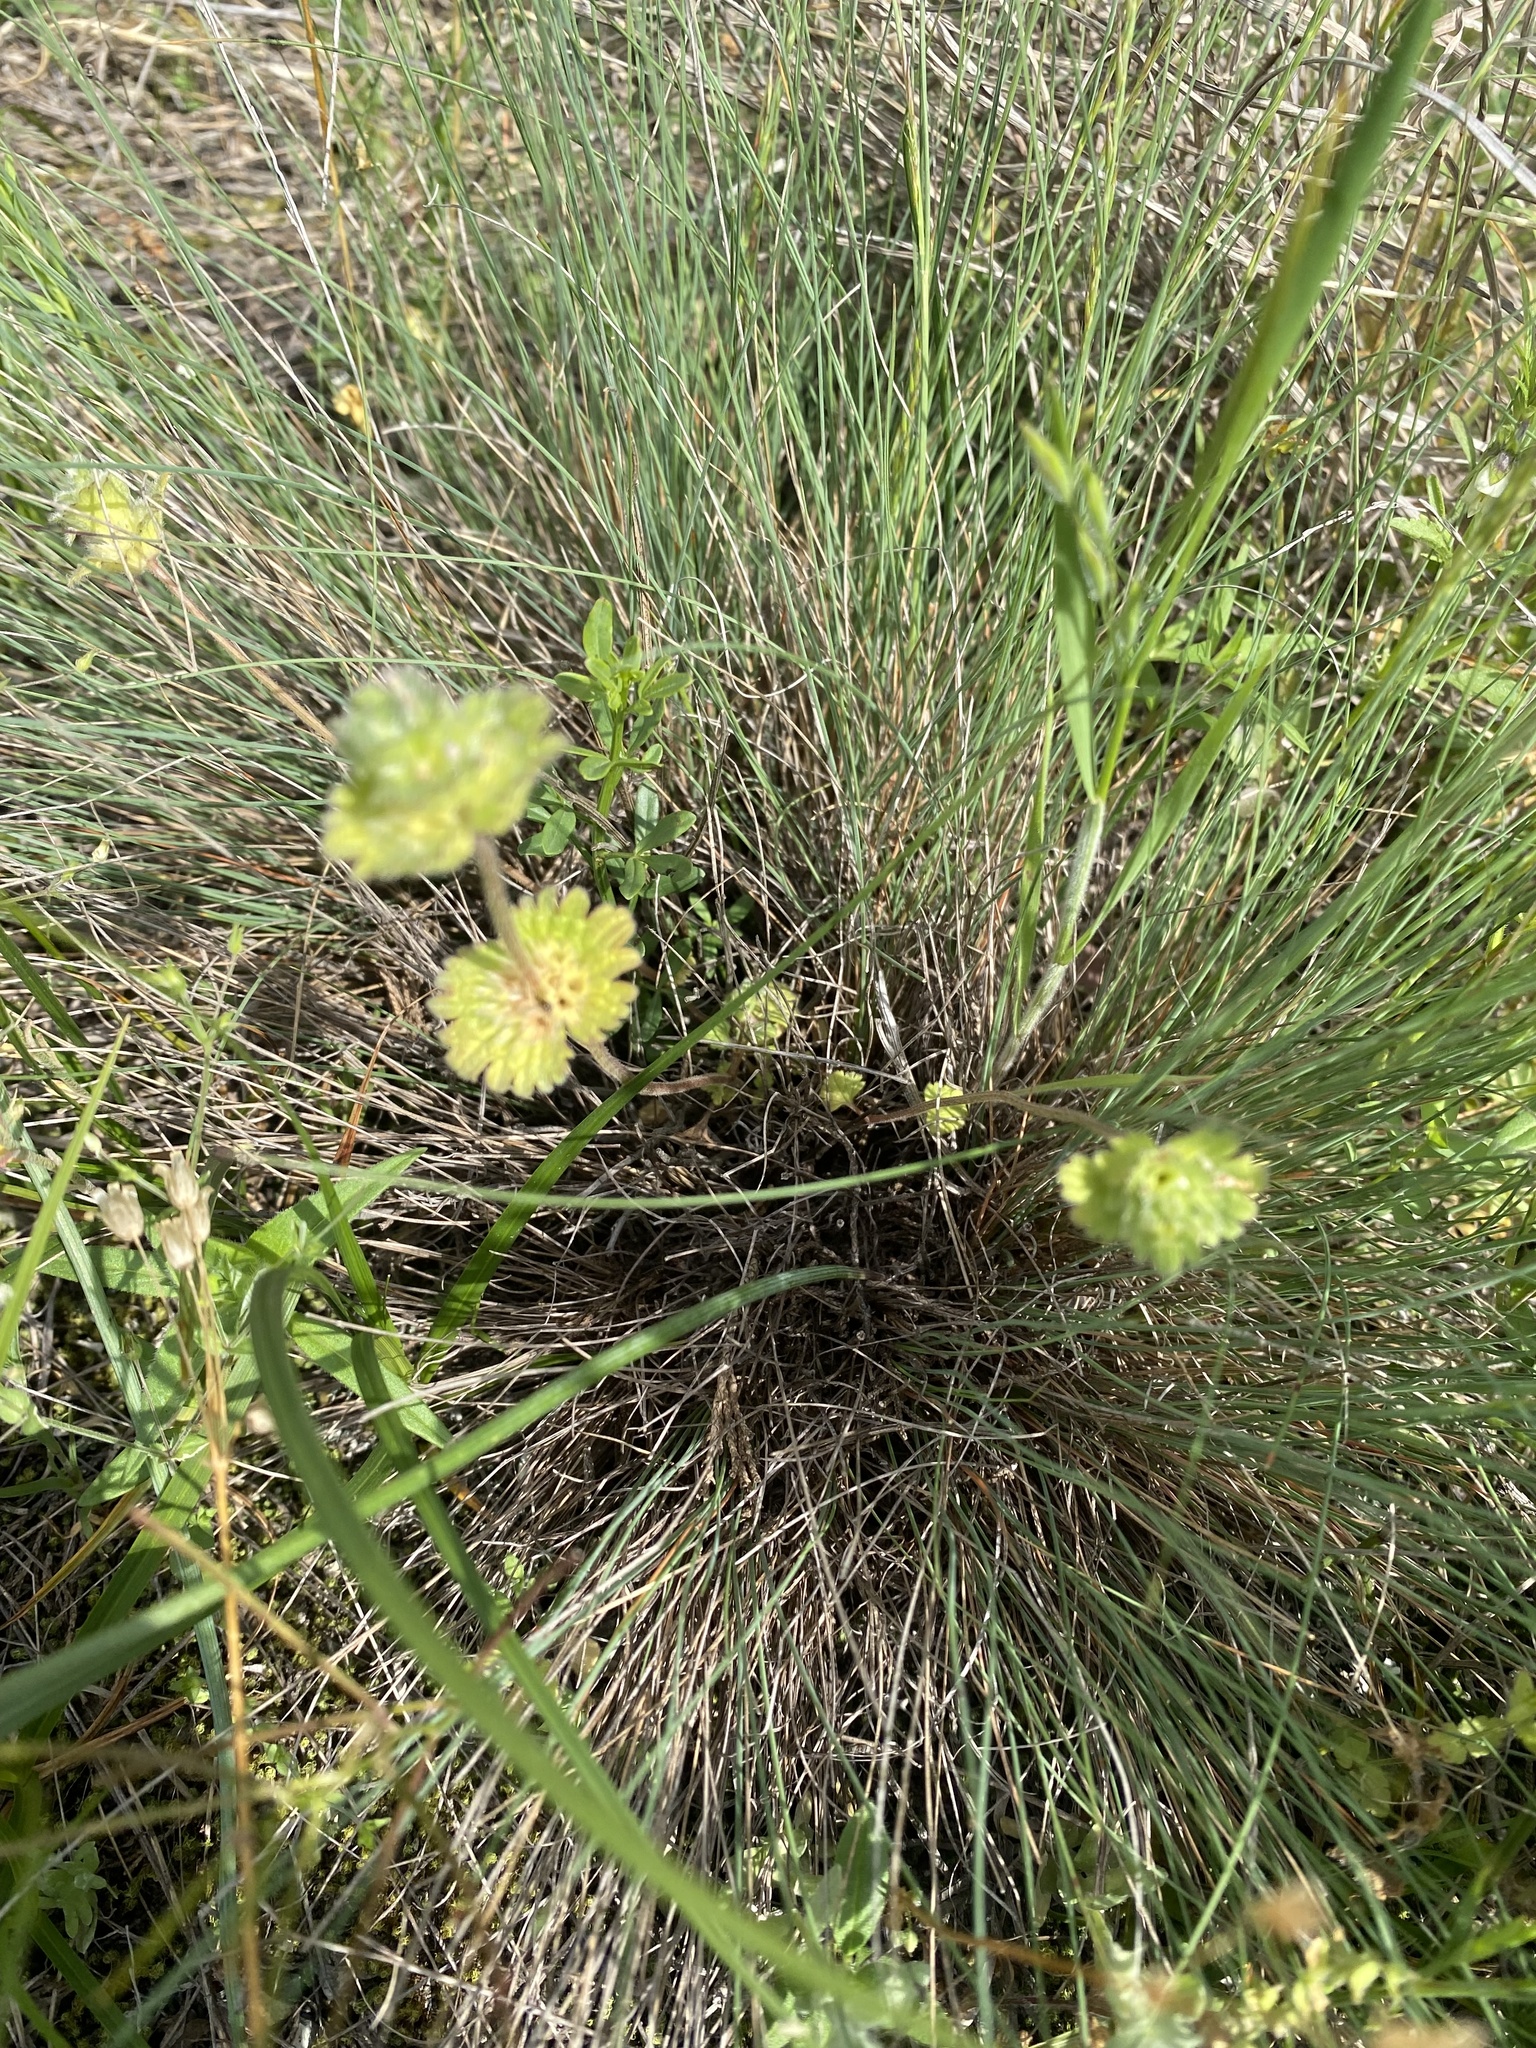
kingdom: Plantae
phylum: Tracheophyta
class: Magnoliopsida
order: Lamiales
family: Lamiaceae
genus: Lamium
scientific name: Lamium amplexicaule
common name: Henbit dead-nettle
